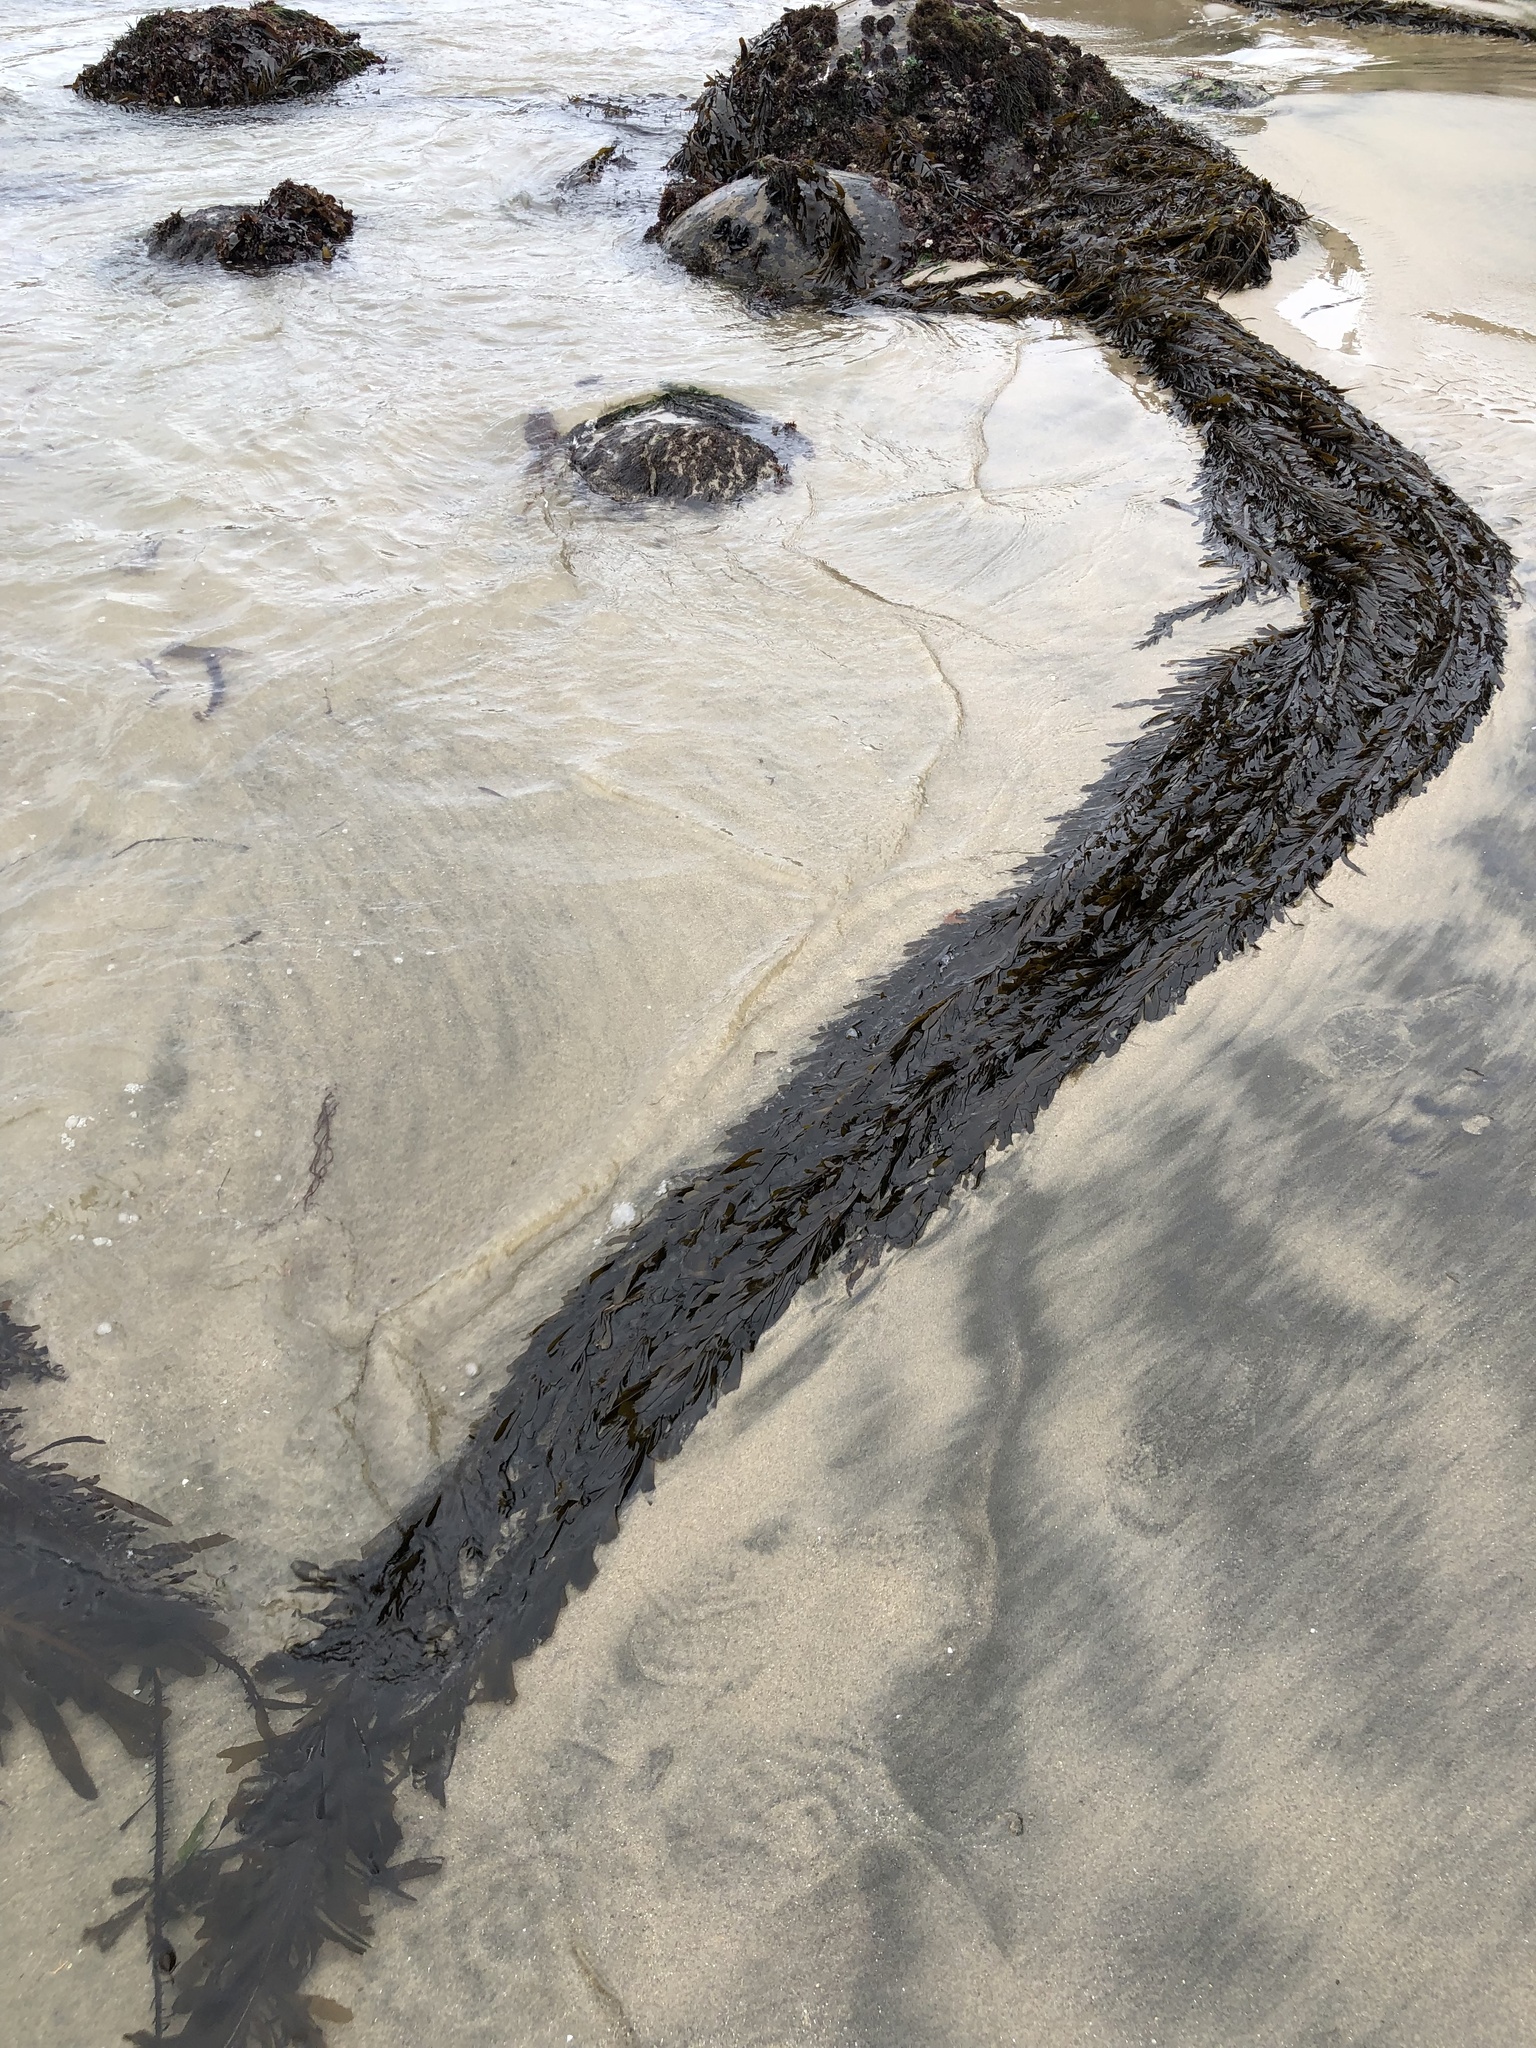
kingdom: Chromista
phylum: Ochrophyta
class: Phaeophyceae
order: Laminariales
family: Lessoniaceae
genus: Egregia
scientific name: Egregia menziesii
